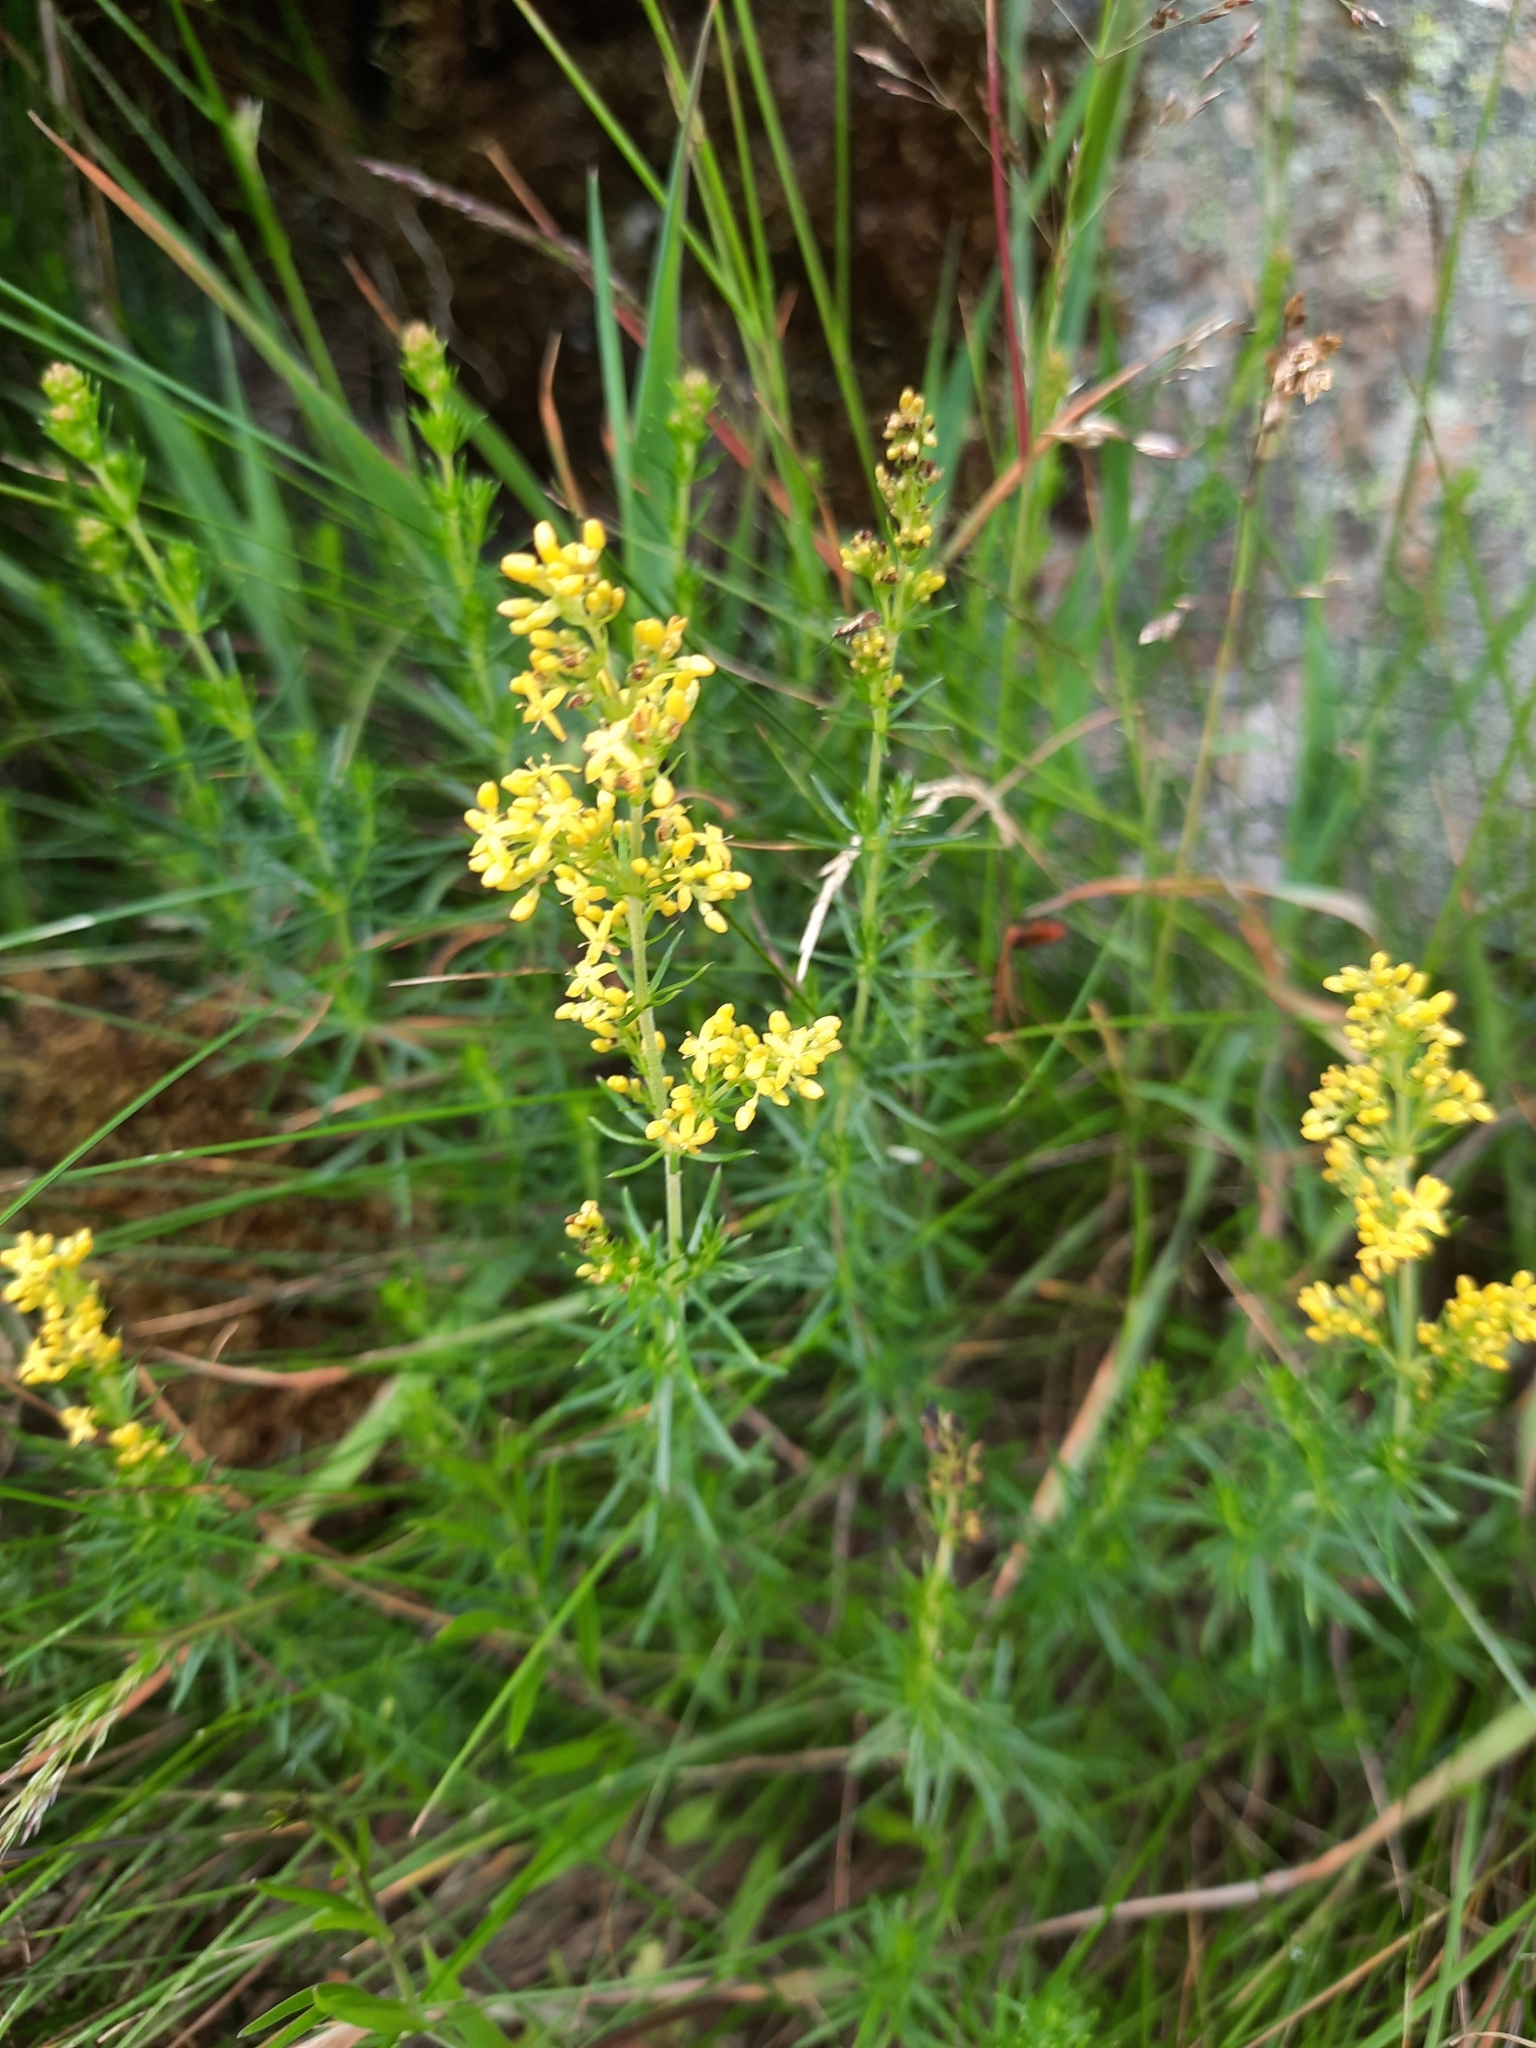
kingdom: Plantae
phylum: Tracheophyta
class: Magnoliopsida
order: Gentianales
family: Rubiaceae
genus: Galium
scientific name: Galium verum
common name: Lady's bedstraw
